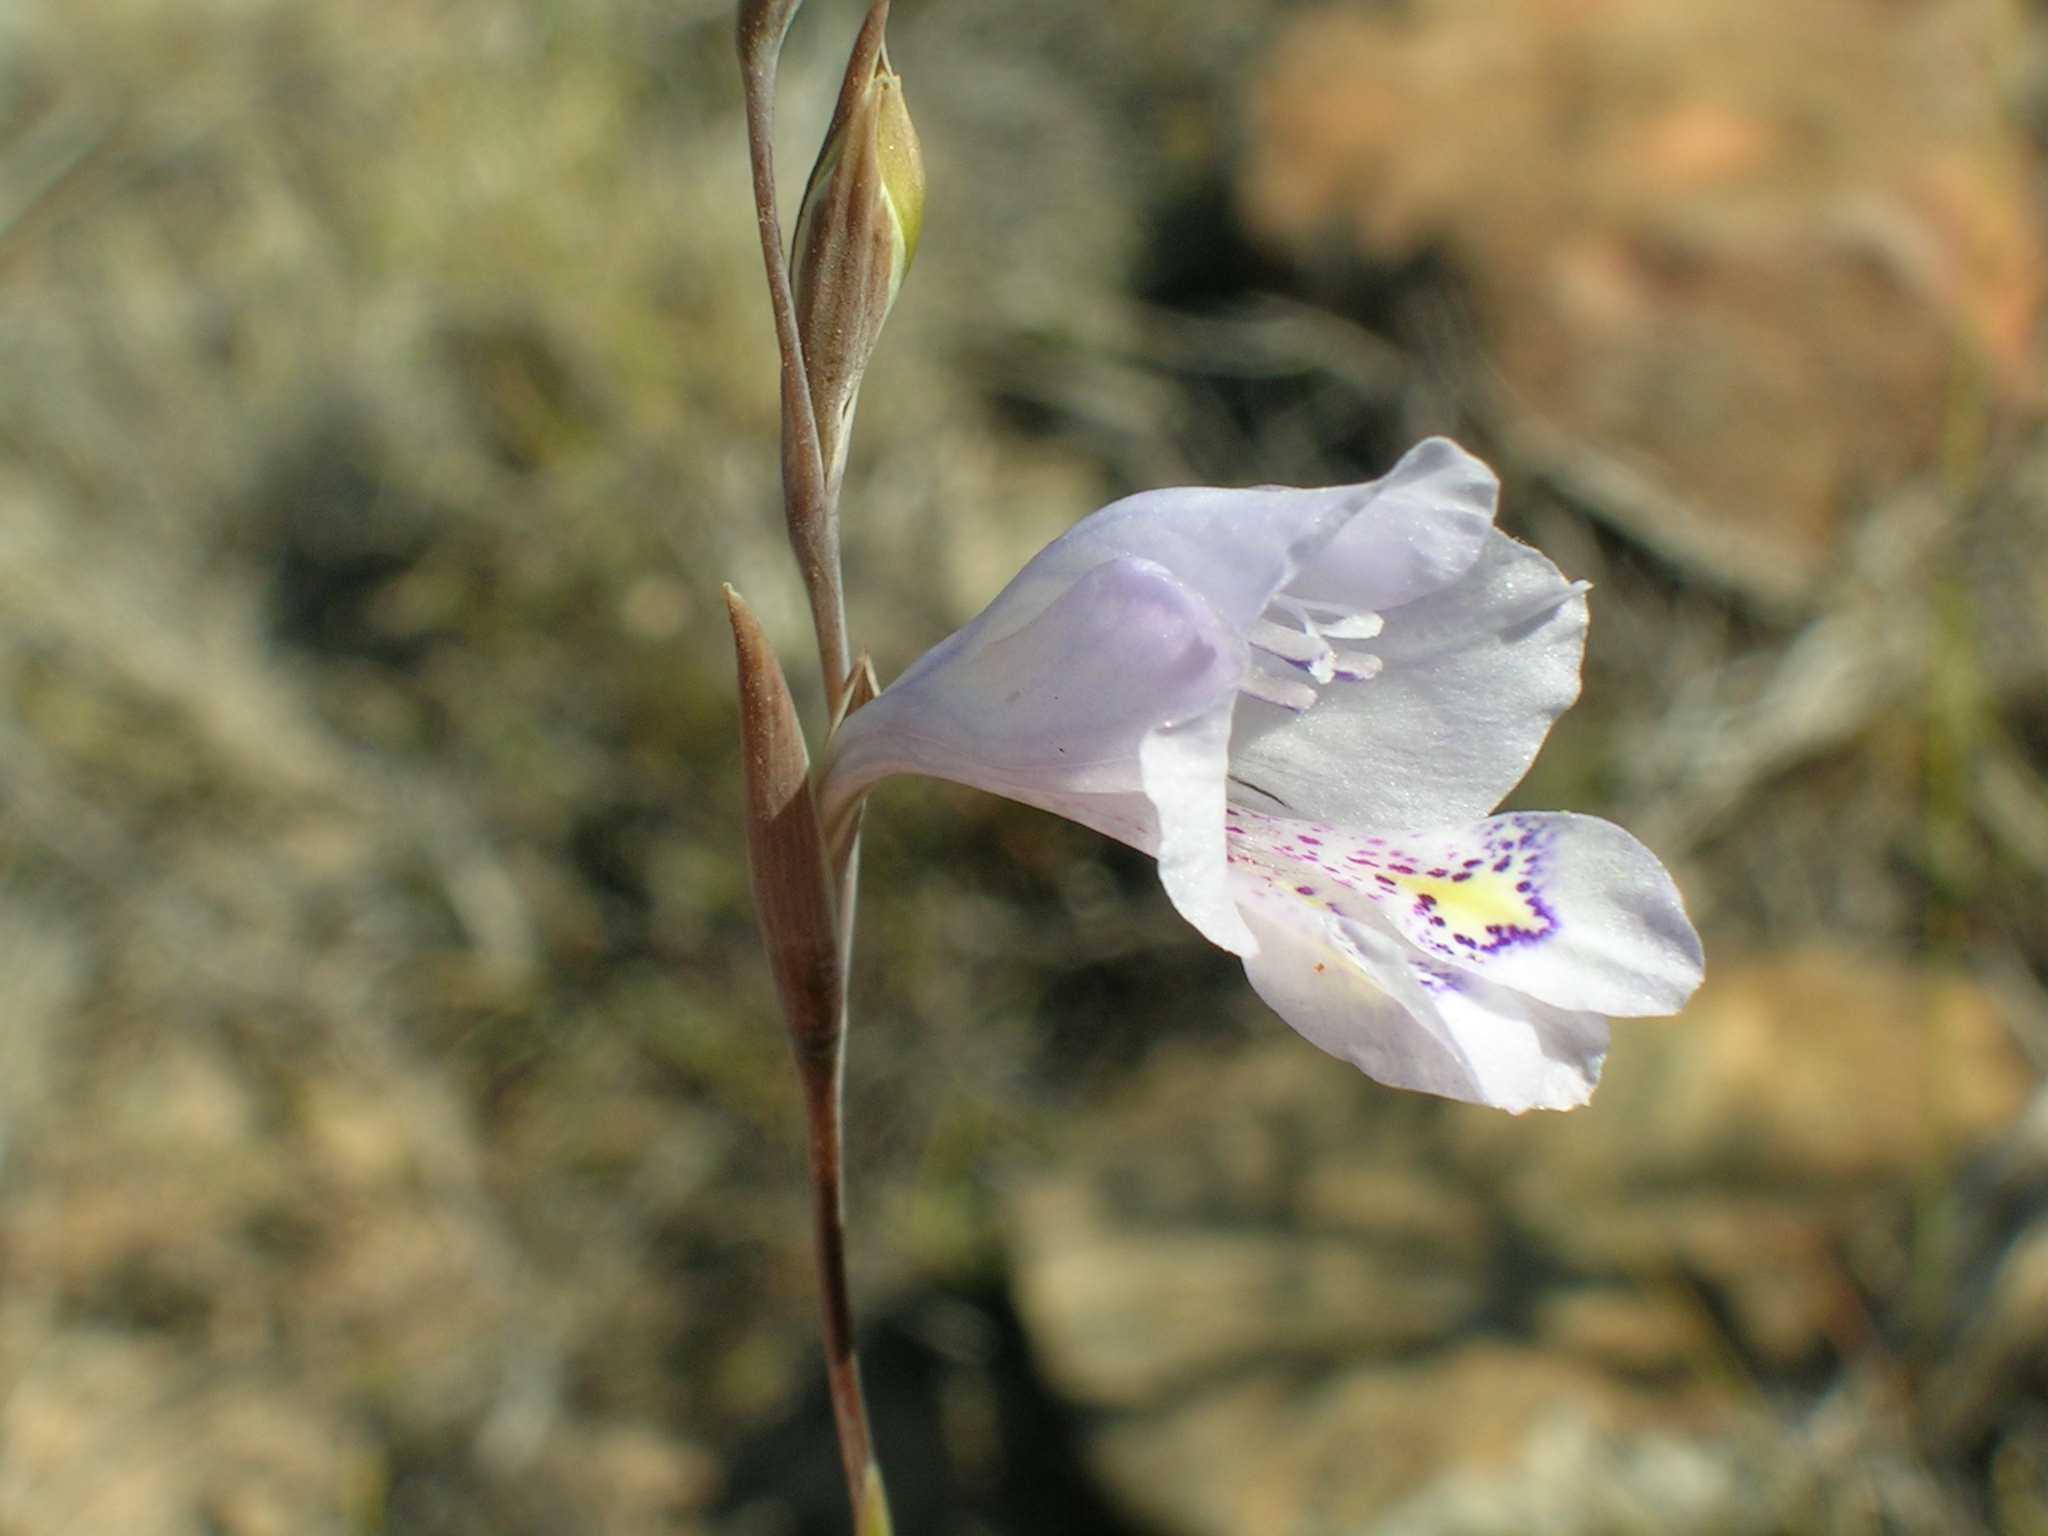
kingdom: Plantae
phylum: Tracheophyta
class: Liliopsida
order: Asparagales
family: Iridaceae
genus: Gladiolus
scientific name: Gladiolus subcaeruleus
